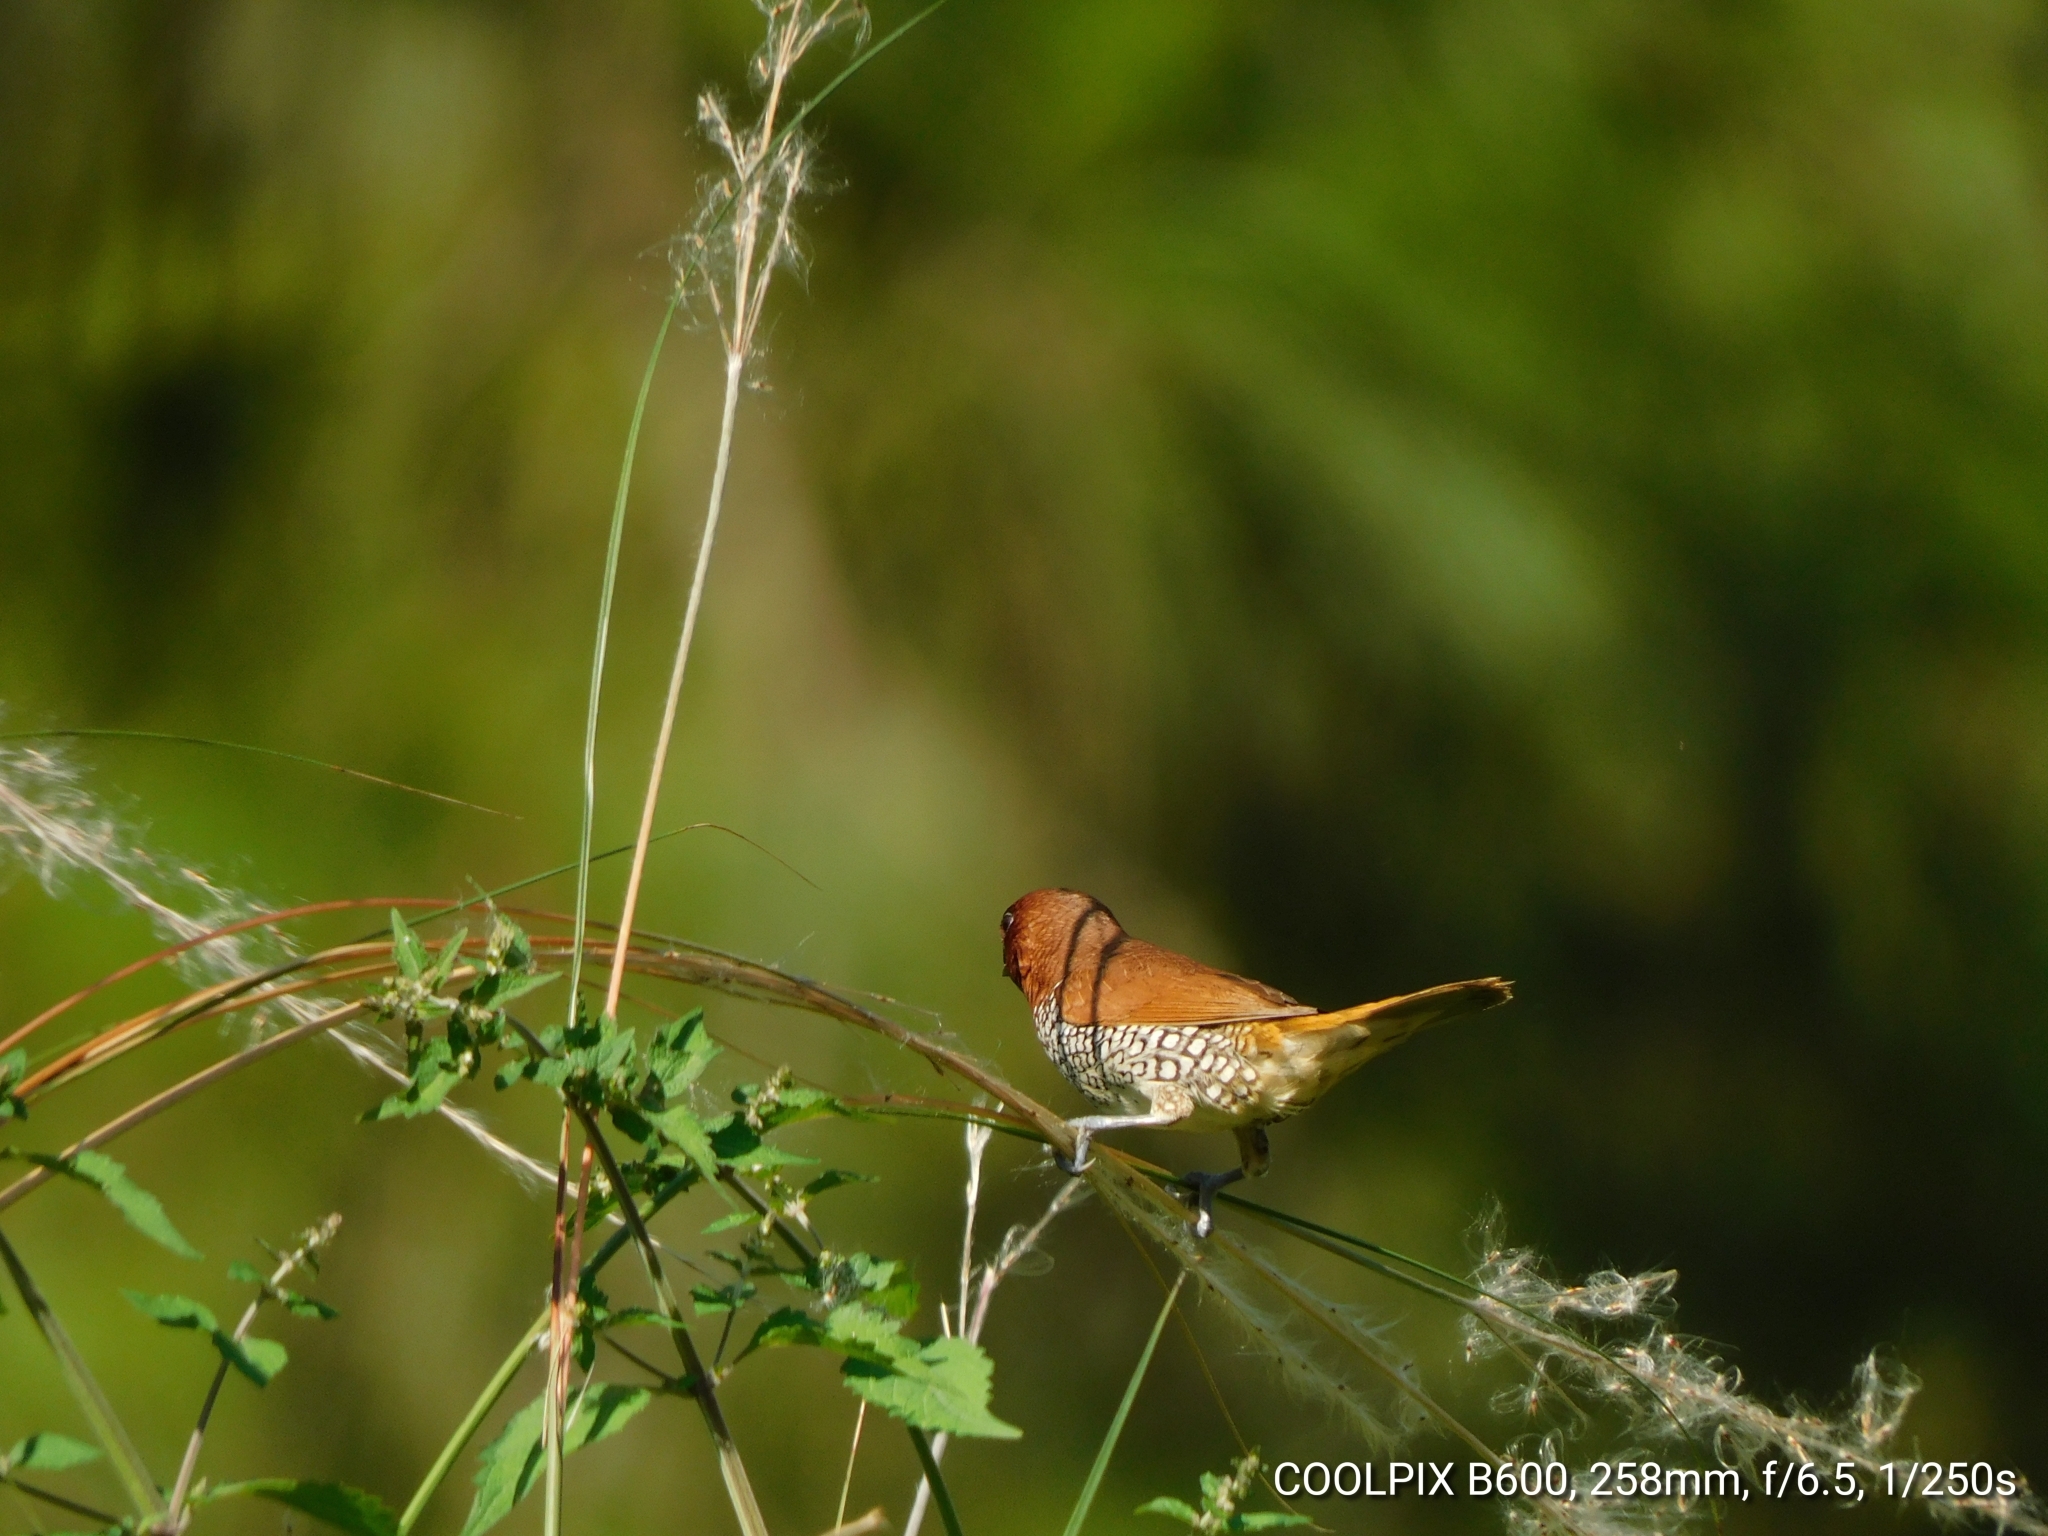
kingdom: Animalia
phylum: Chordata
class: Aves
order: Passeriformes
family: Estrildidae
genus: Lonchura
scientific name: Lonchura punctulata
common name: Scaly-breasted munia
